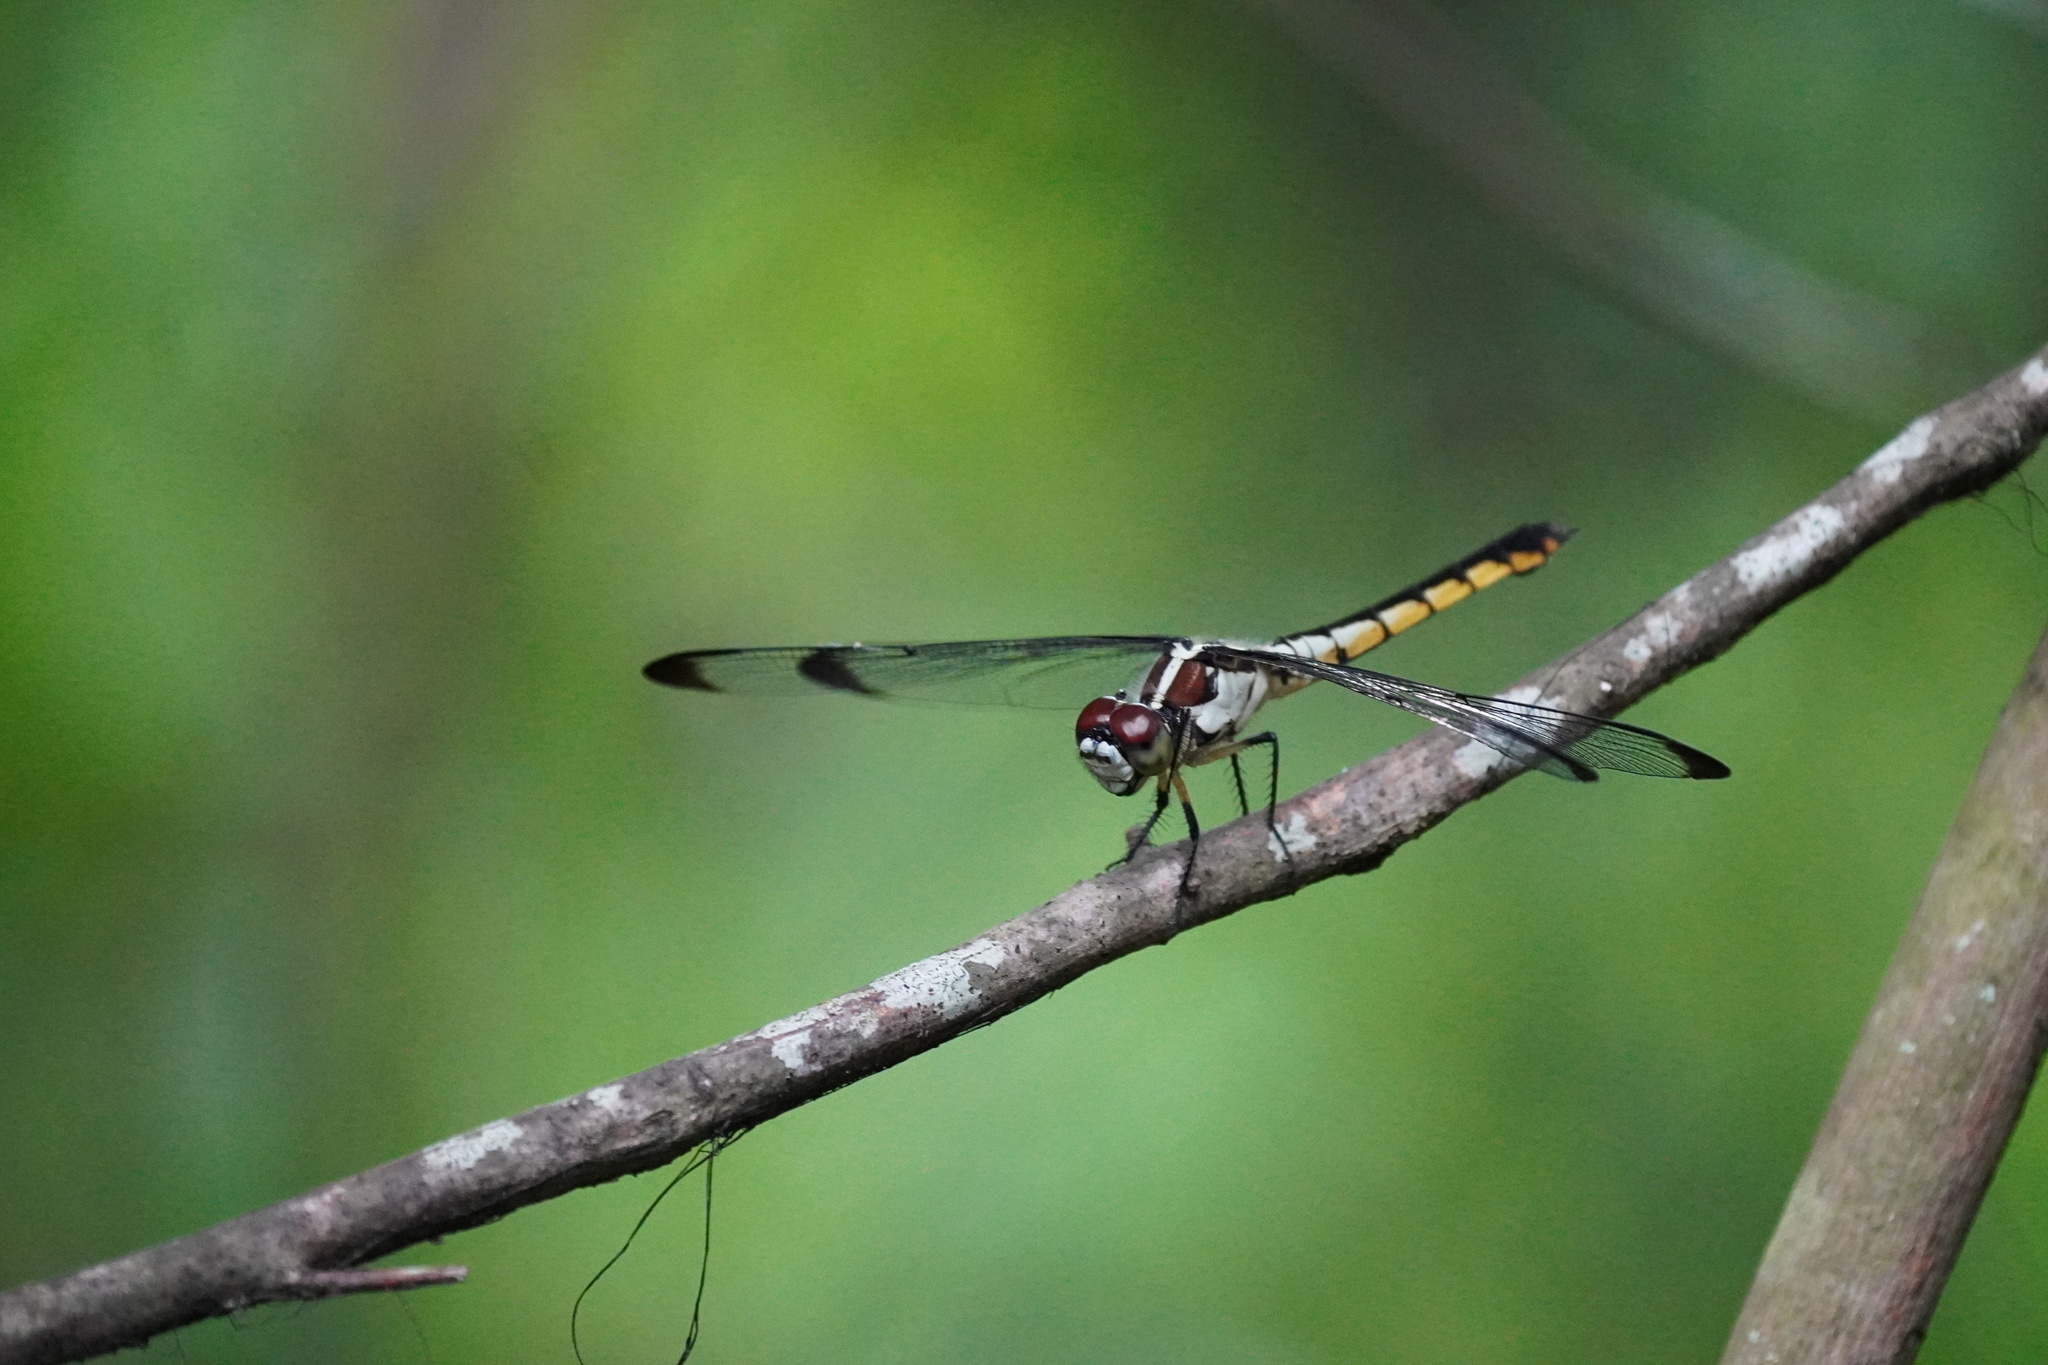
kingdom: Animalia
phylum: Arthropoda
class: Insecta
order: Odonata
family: Libellulidae
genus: Libellula
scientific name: Libellula vibrans
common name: Great blue skimmer
